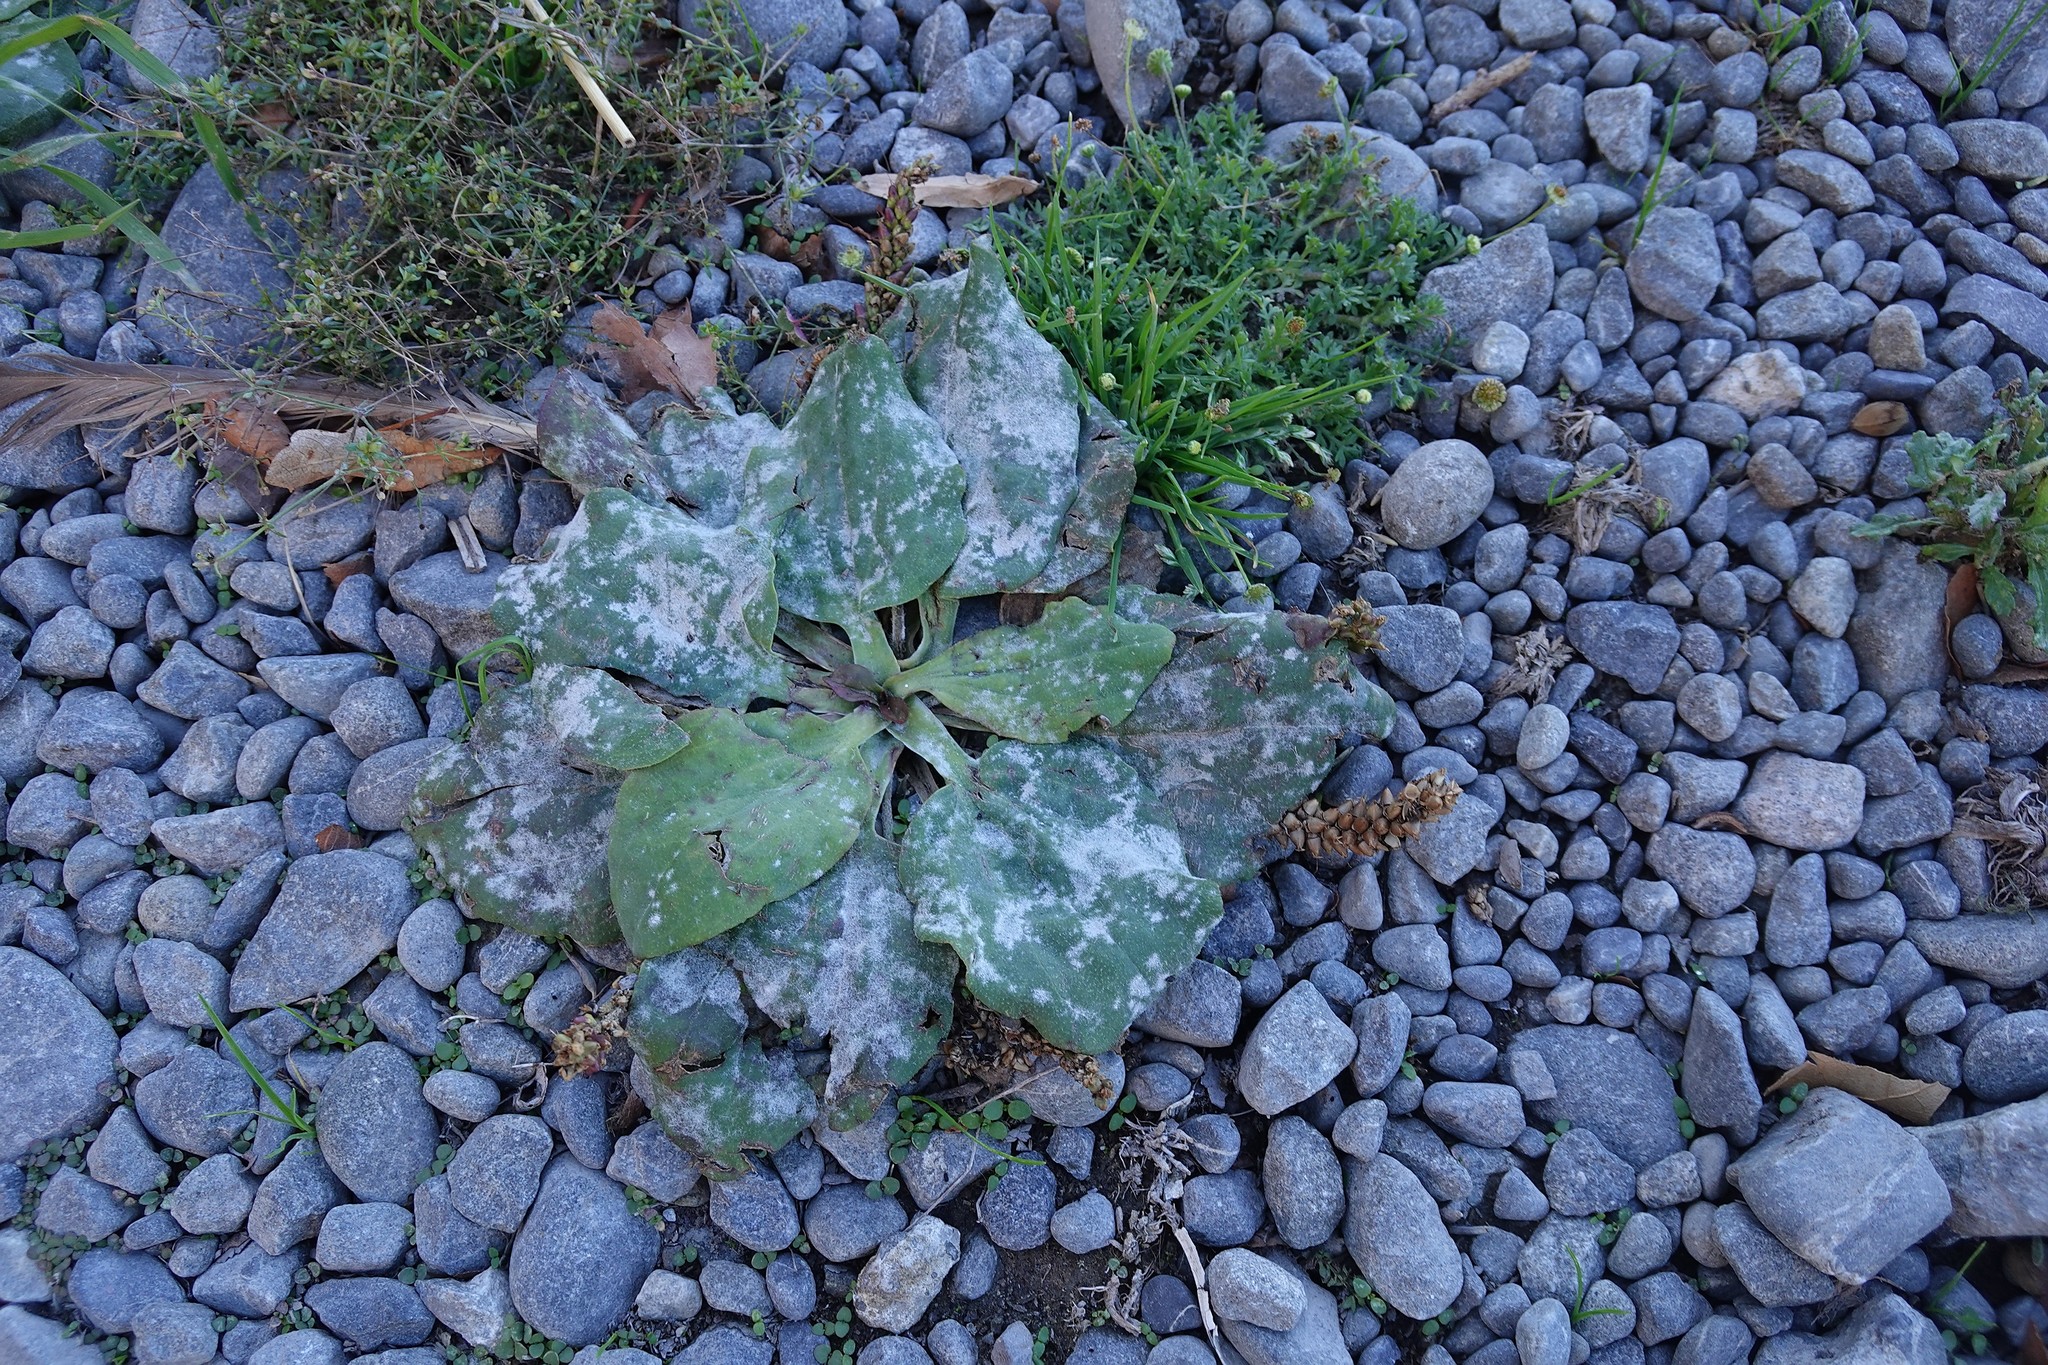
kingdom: Plantae
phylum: Tracheophyta
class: Magnoliopsida
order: Lamiales
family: Plantaginaceae
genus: Plantago
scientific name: Plantago major
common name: Common plantain
